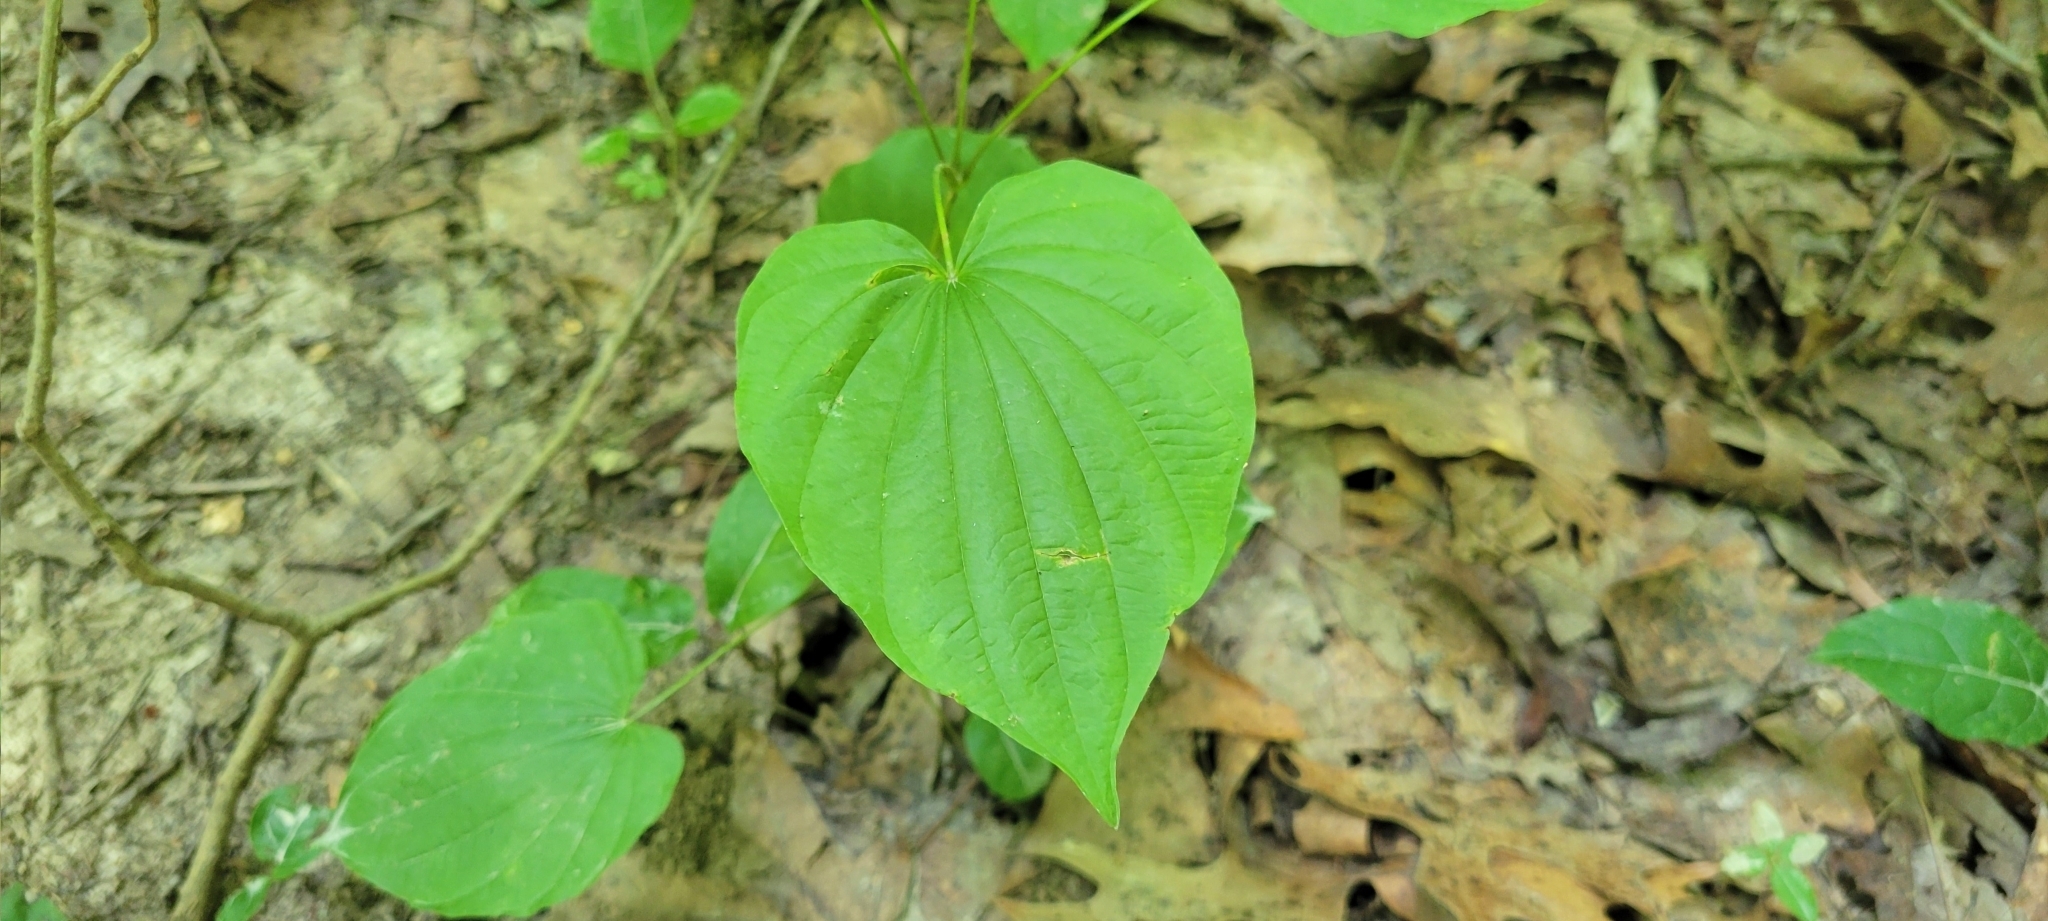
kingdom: Plantae
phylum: Tracheophyta
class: Liliopsida
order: Dioscoreales
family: Dioscoreaceae
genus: Dioscorea
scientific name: Dioscorea villosa
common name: Wild yam
